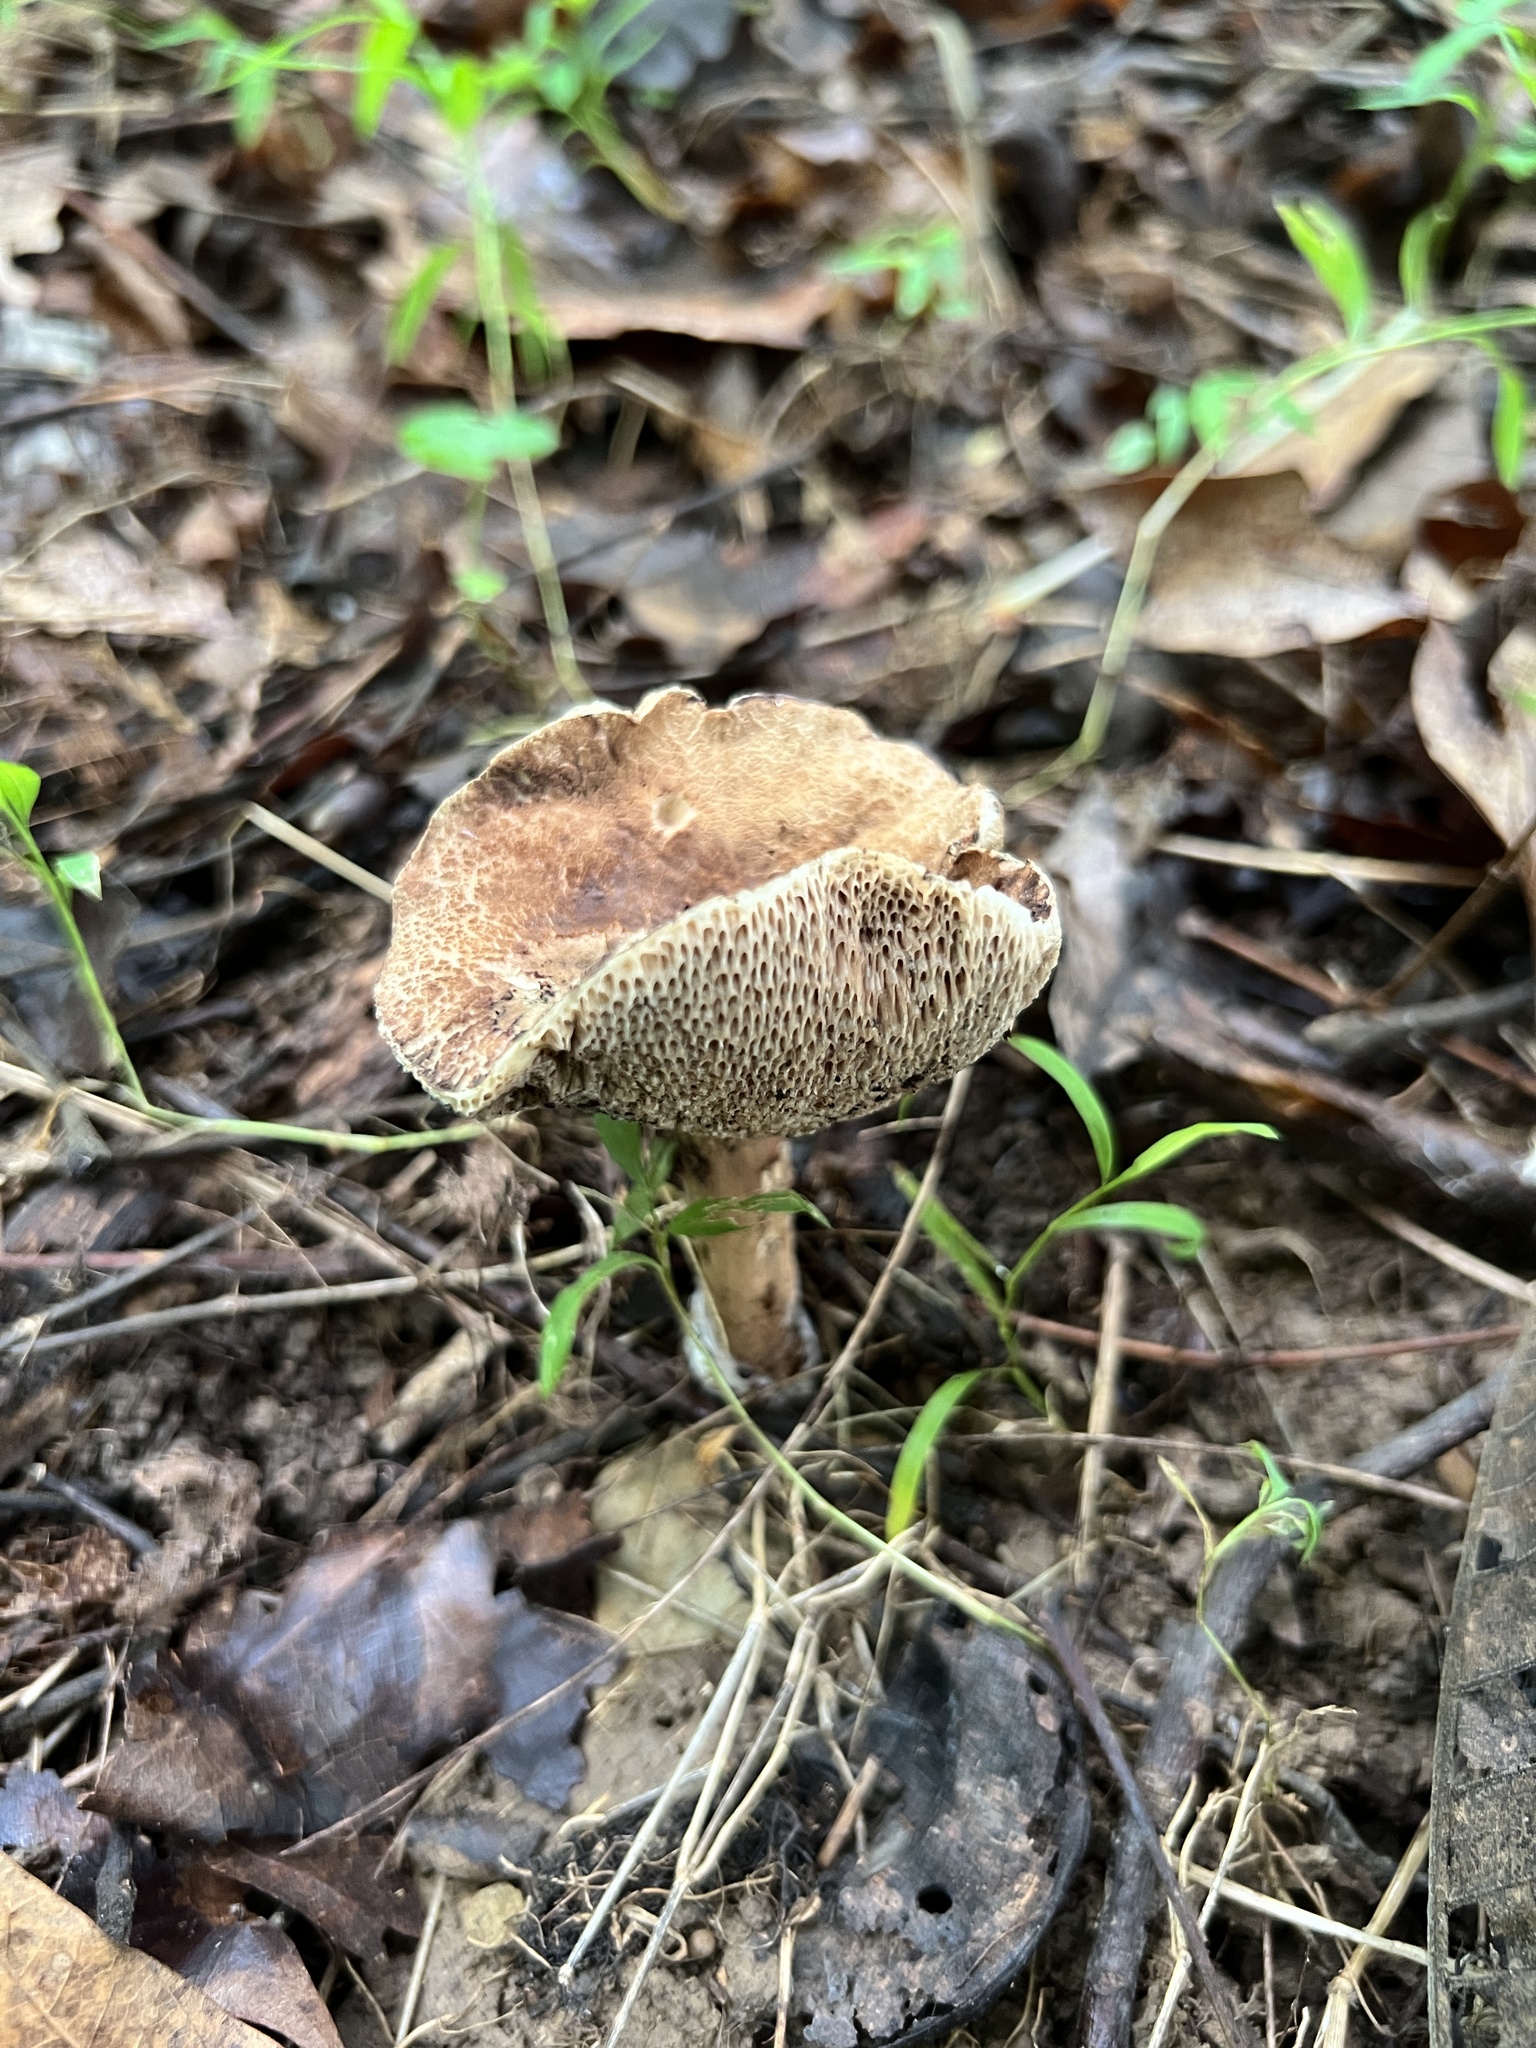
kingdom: Fungi
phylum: Basidiomycota
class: Agaricomycetes
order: Boletales
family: Boletaceae
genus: Porphyrellus
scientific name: Porphyrellus sordidus
